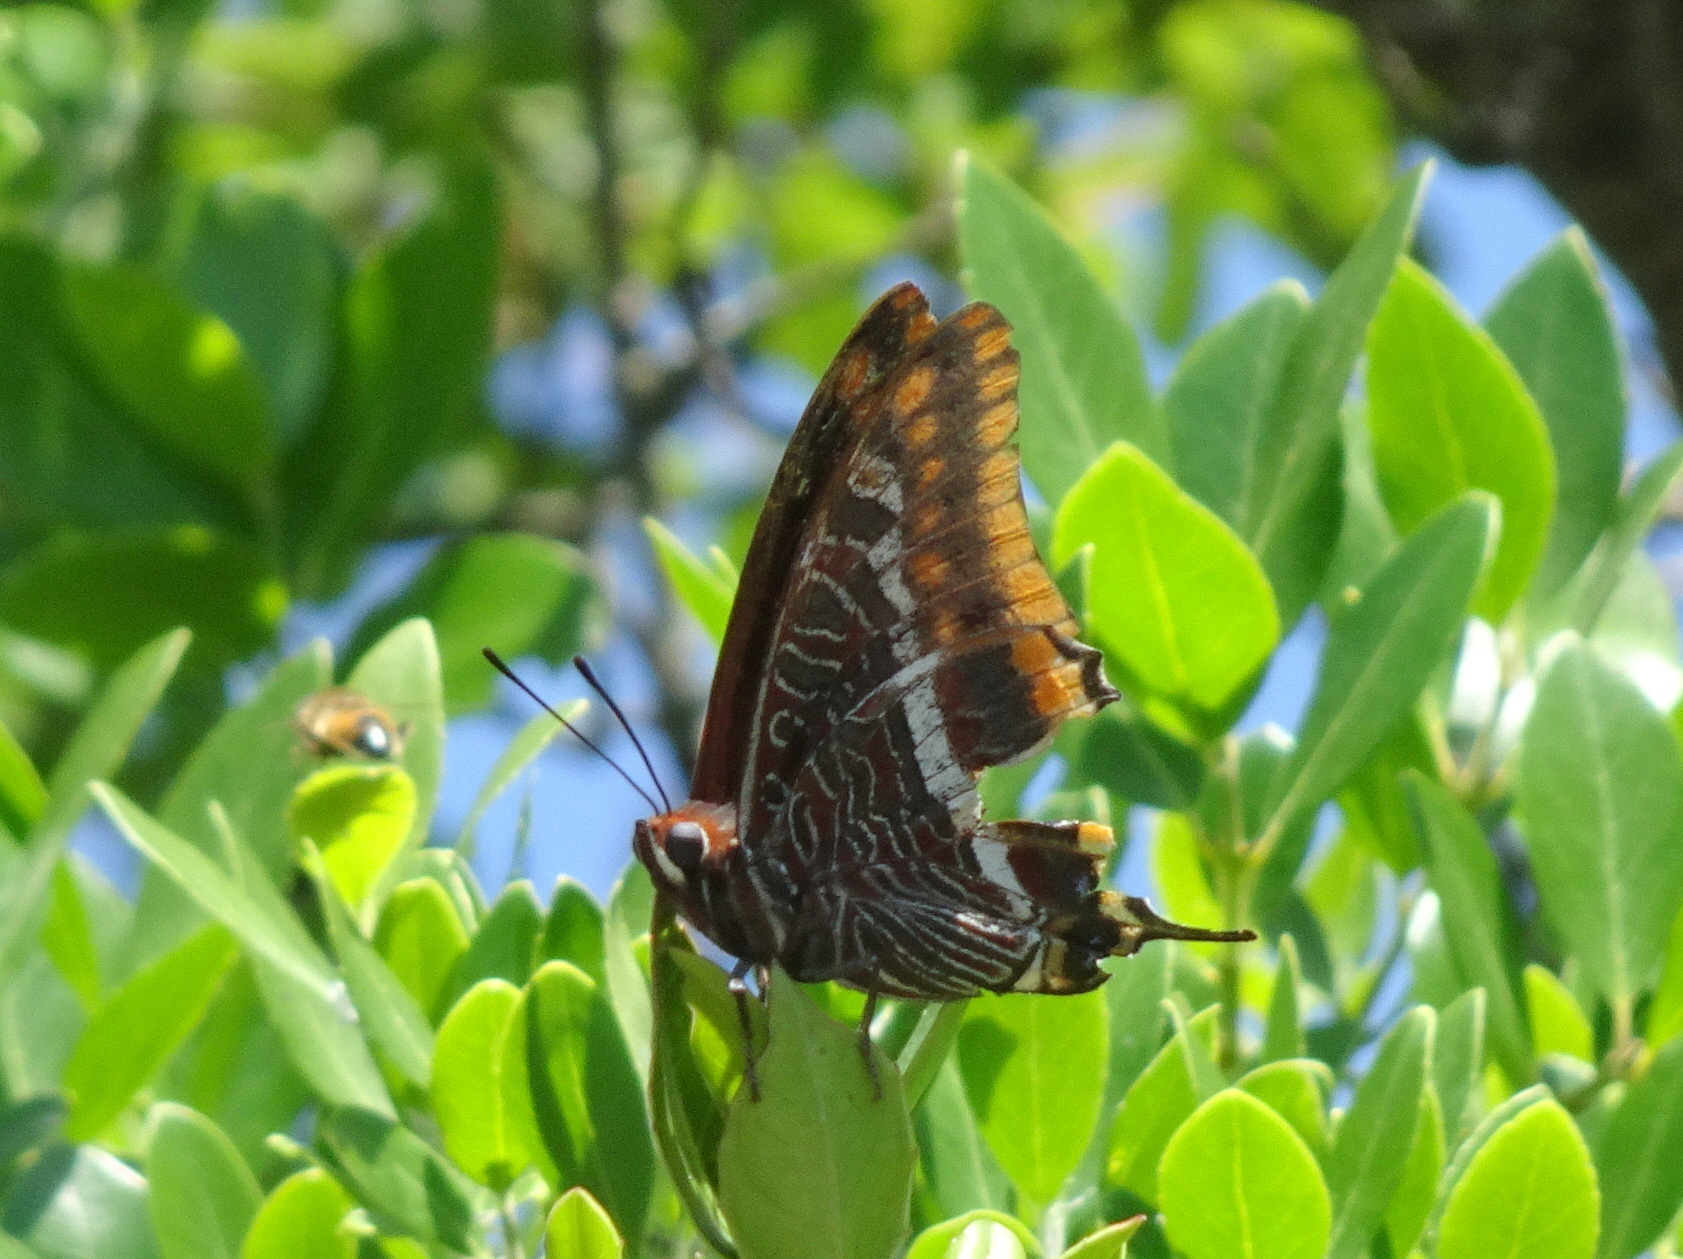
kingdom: Animalia
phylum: Arthropoda
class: Insecta
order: Lepidoptera
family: Nymphalidae
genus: Charaxes
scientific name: Charaxes jasius
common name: Two tailed pasha
